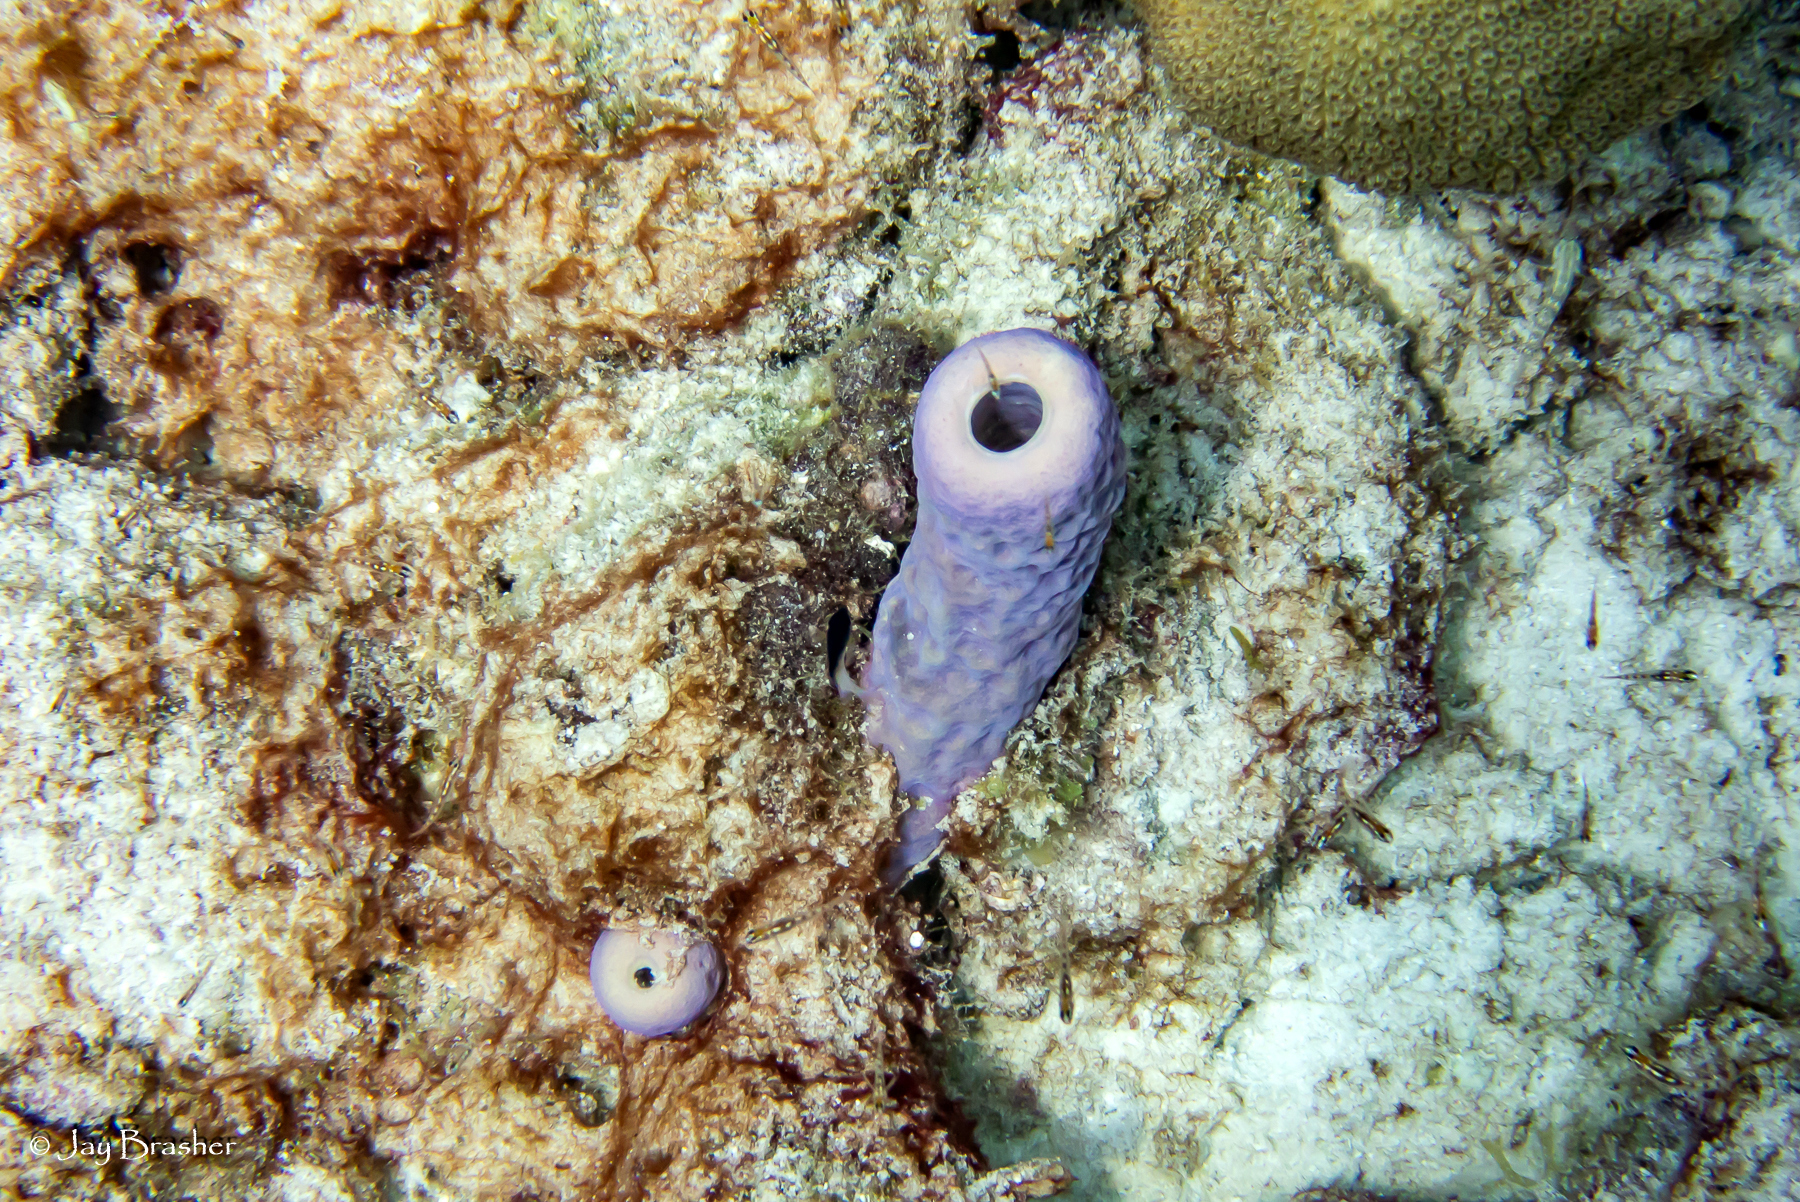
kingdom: Animalia
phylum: Porifera
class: Demospongiae
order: Verongiida
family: Aplysinidae
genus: Aplysina
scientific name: Aplysina archeri
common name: Stove-pipe sponge
